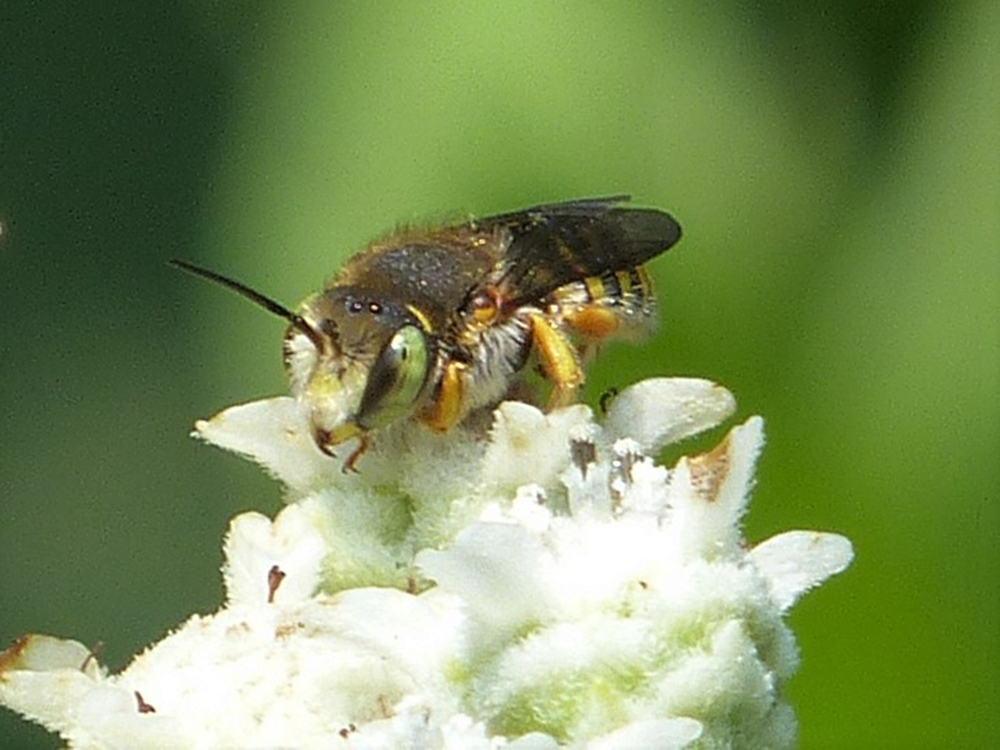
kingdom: Animalia
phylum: Arthropoda
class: Insecta
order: Hymenoptera
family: Megachilidae
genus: Anthidium
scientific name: Anthidium oblongatum
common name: Oblong wool carder bee
